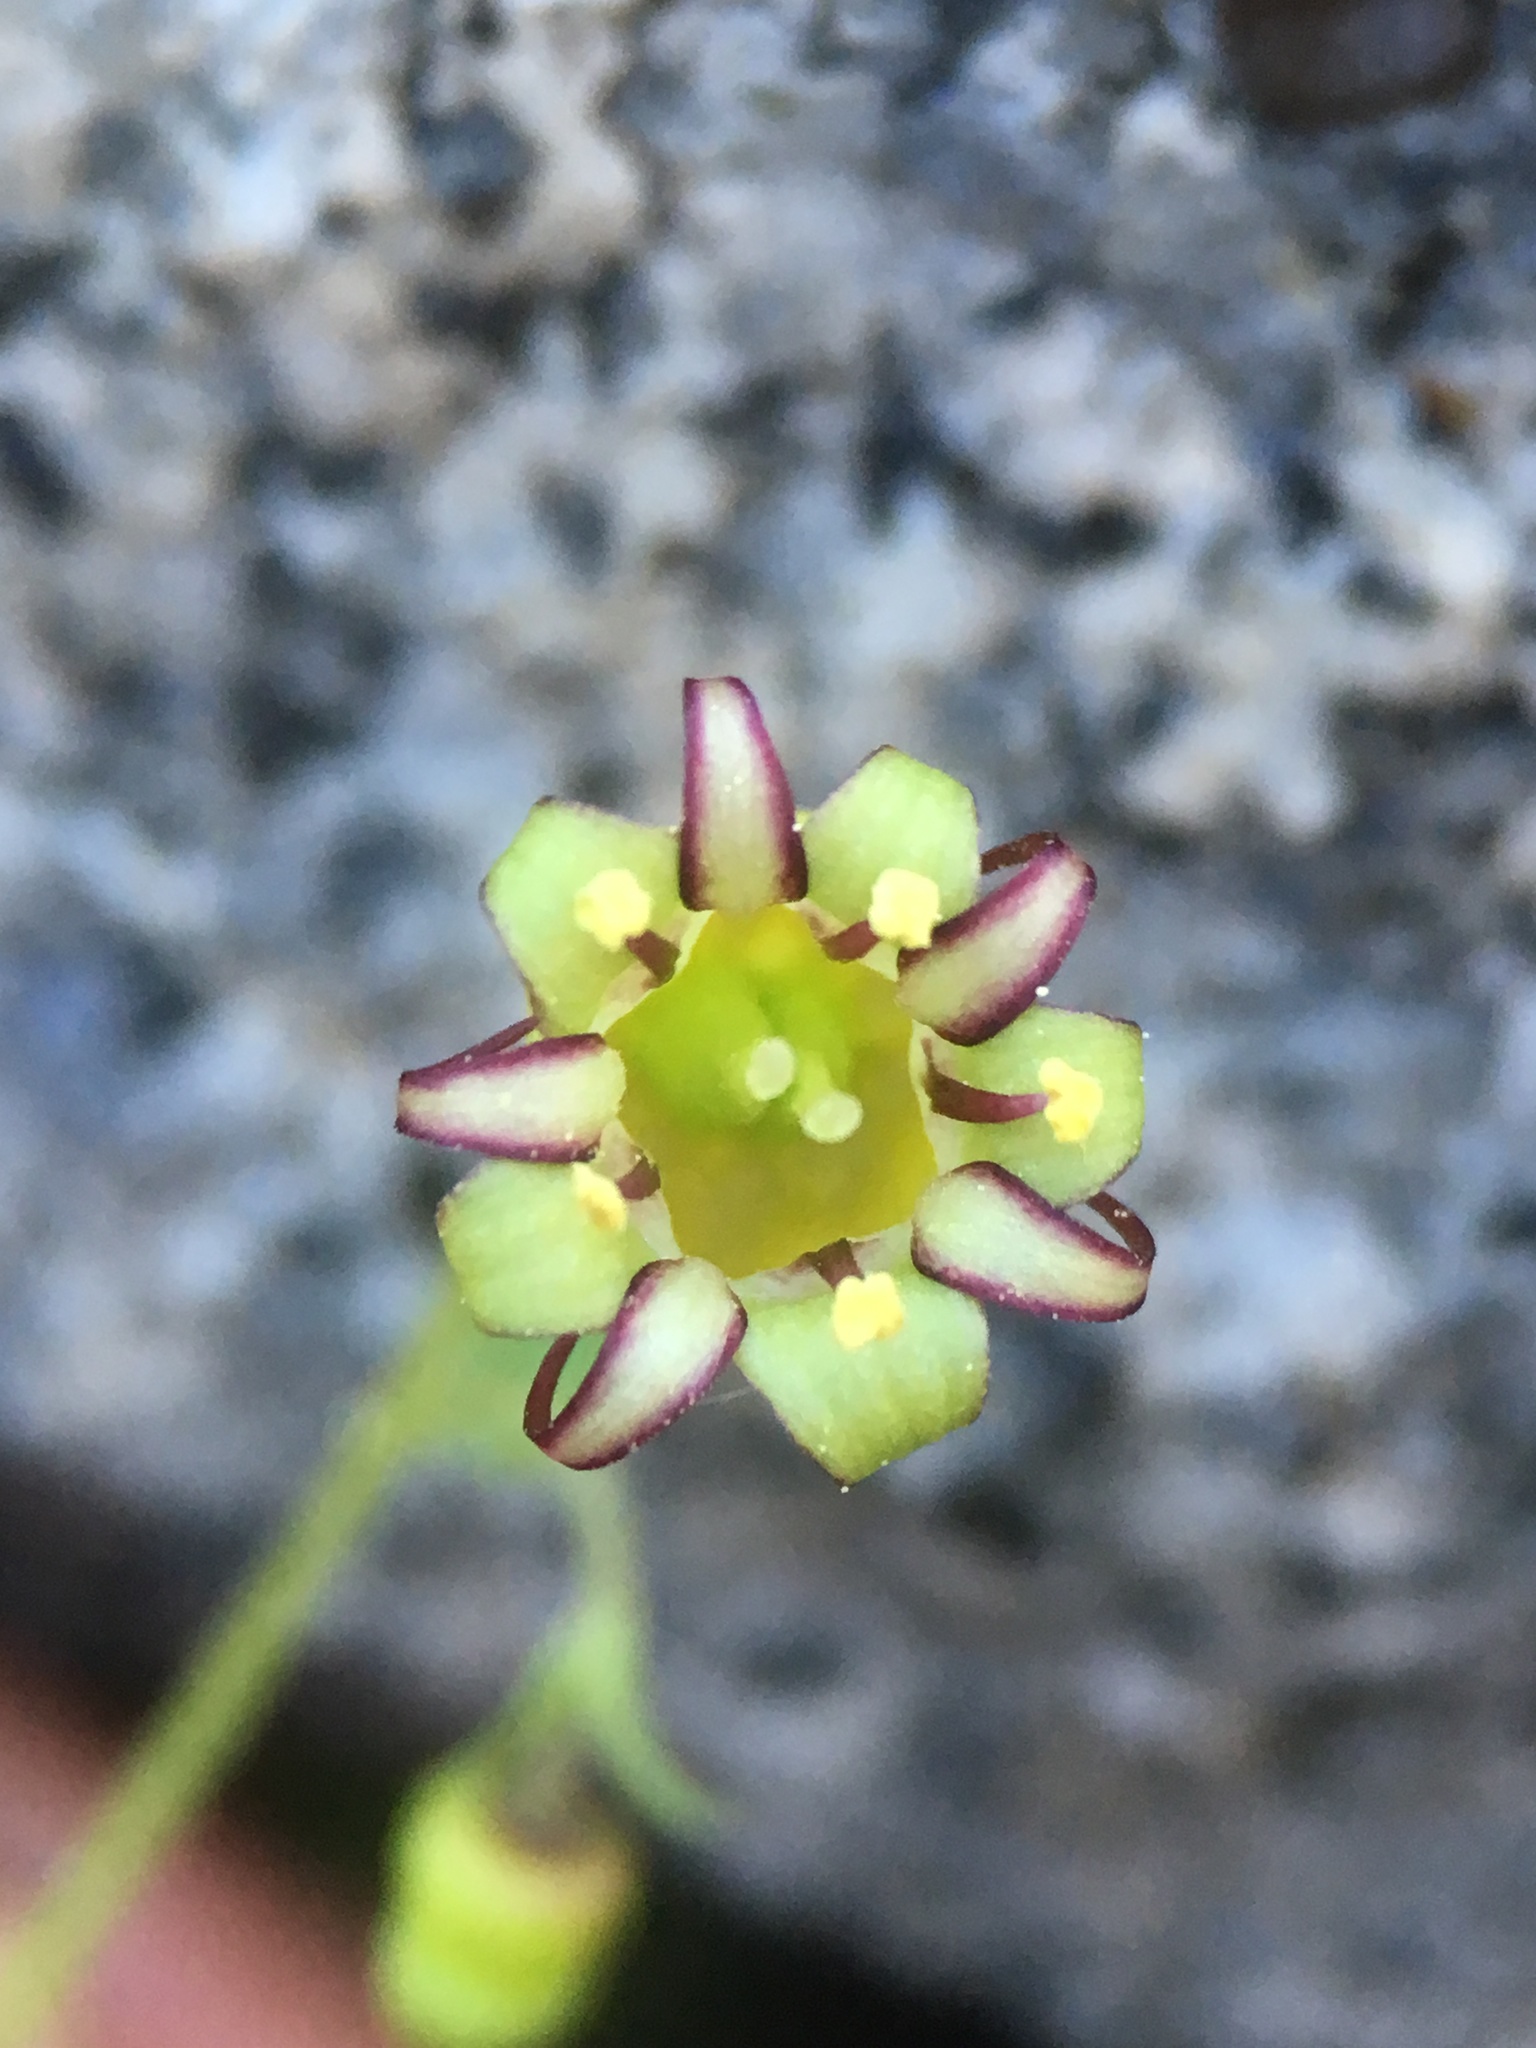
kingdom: Plantae
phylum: Tracheophyta
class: Magnoliopsida
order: Saxifragales
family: Saxifragaceae
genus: Bolandra
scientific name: Bolandra californica
